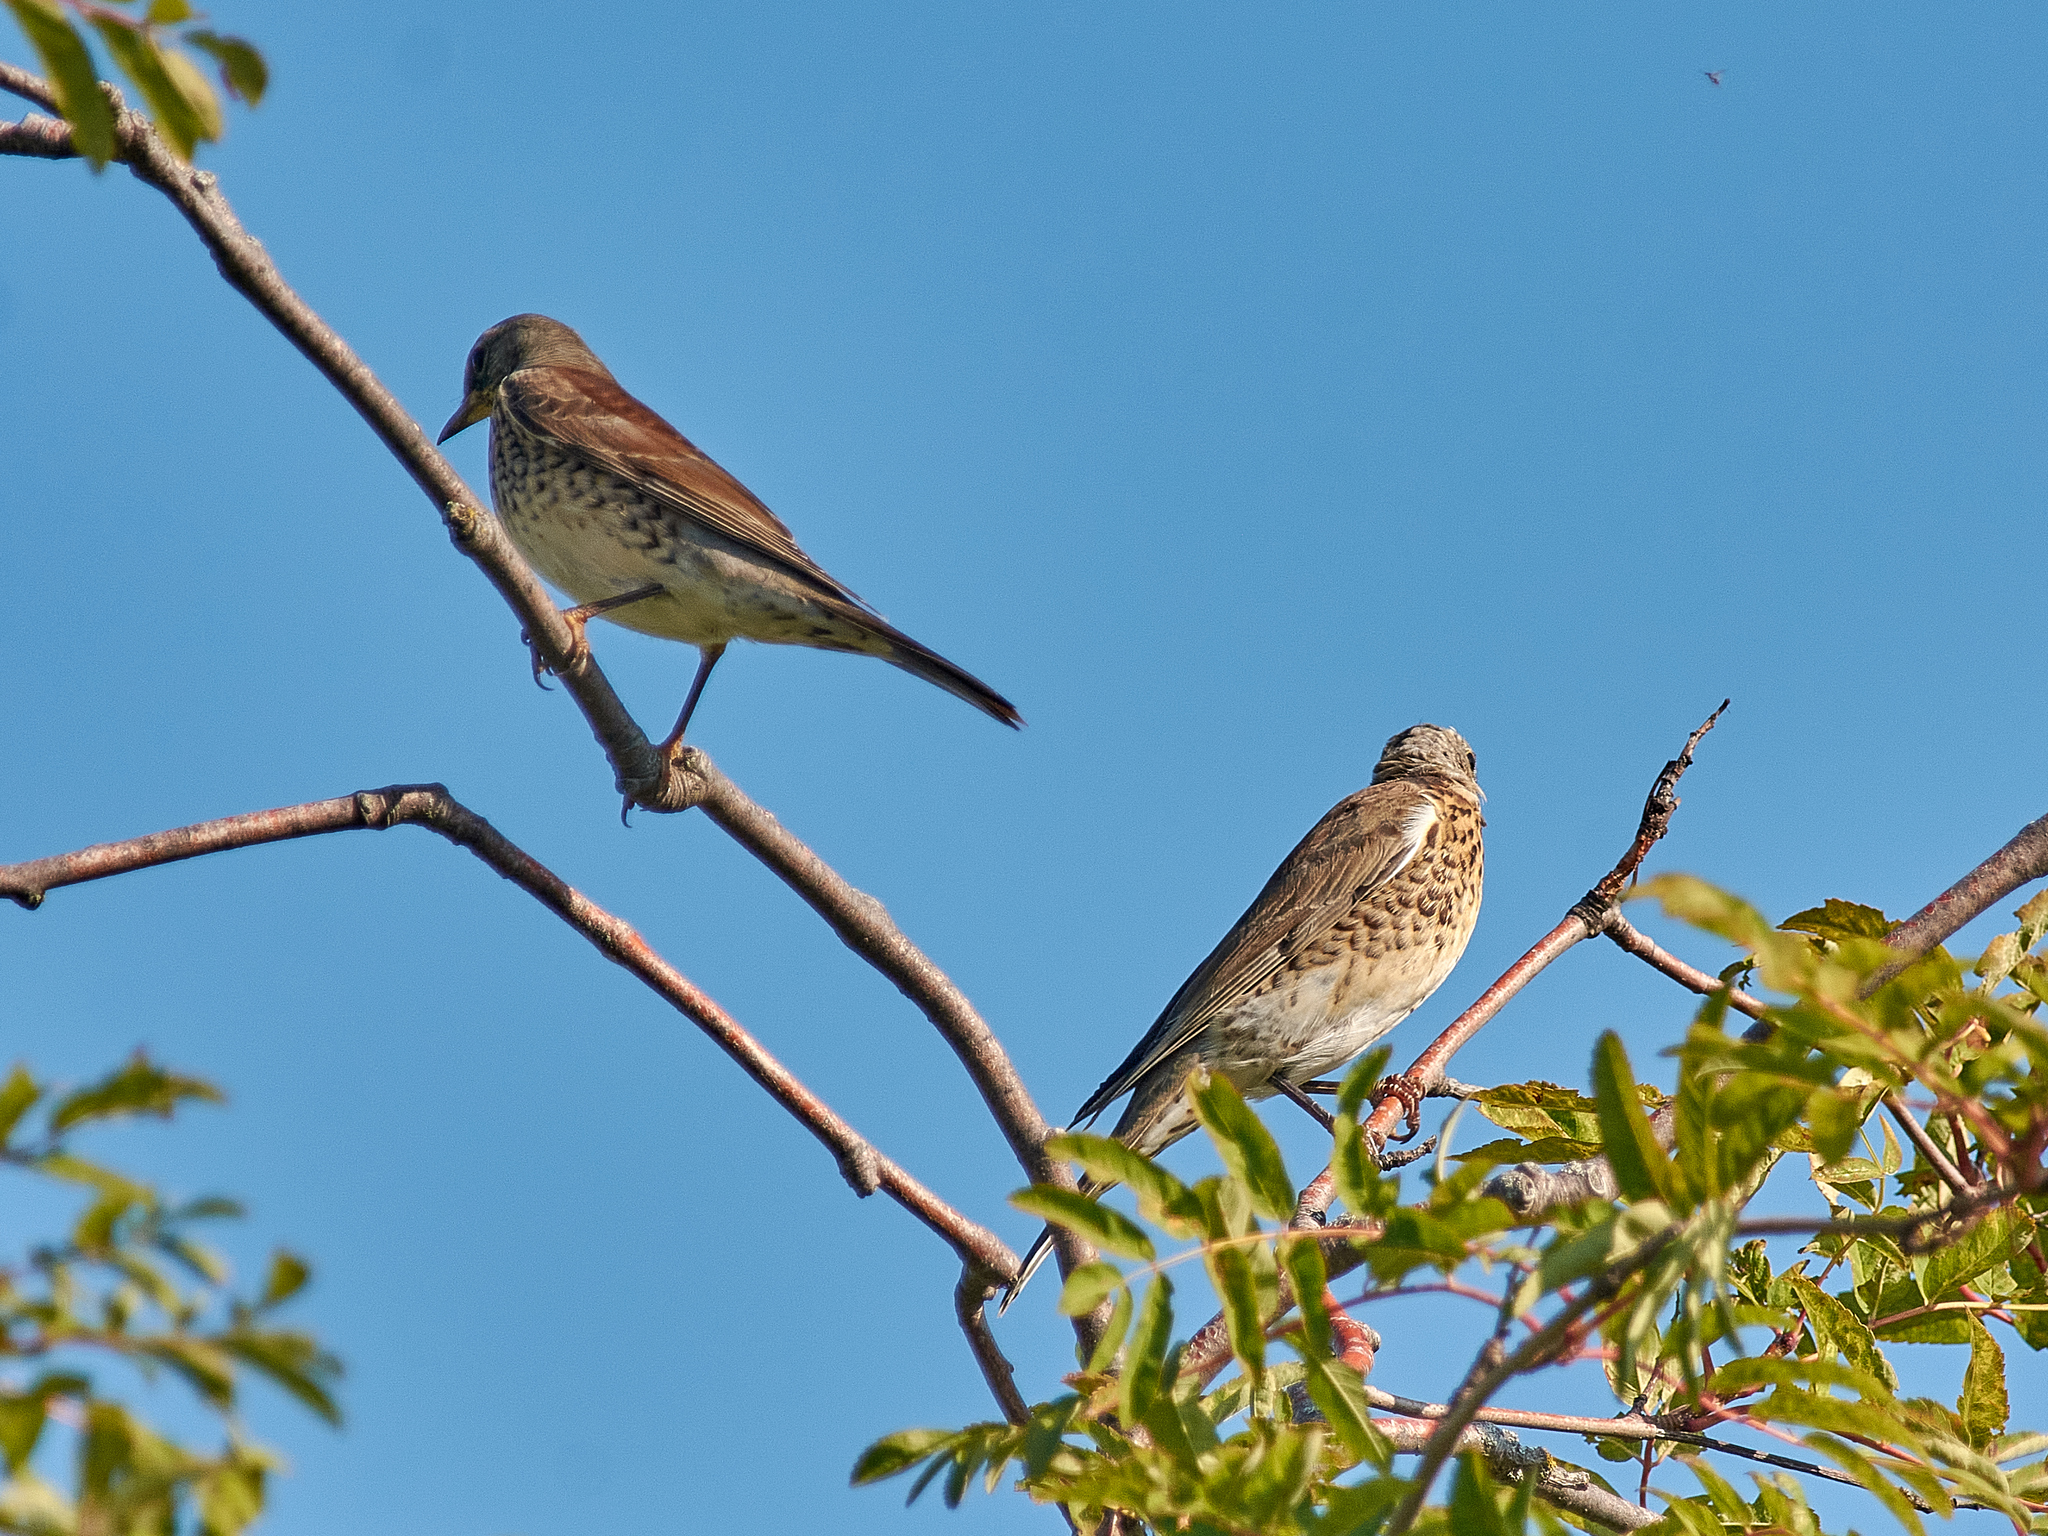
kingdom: Animalia
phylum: Chordata
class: Aves
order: Passeriformes
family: Turdidae
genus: Turdus
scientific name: Turdus pilaris
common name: Fieldfare
